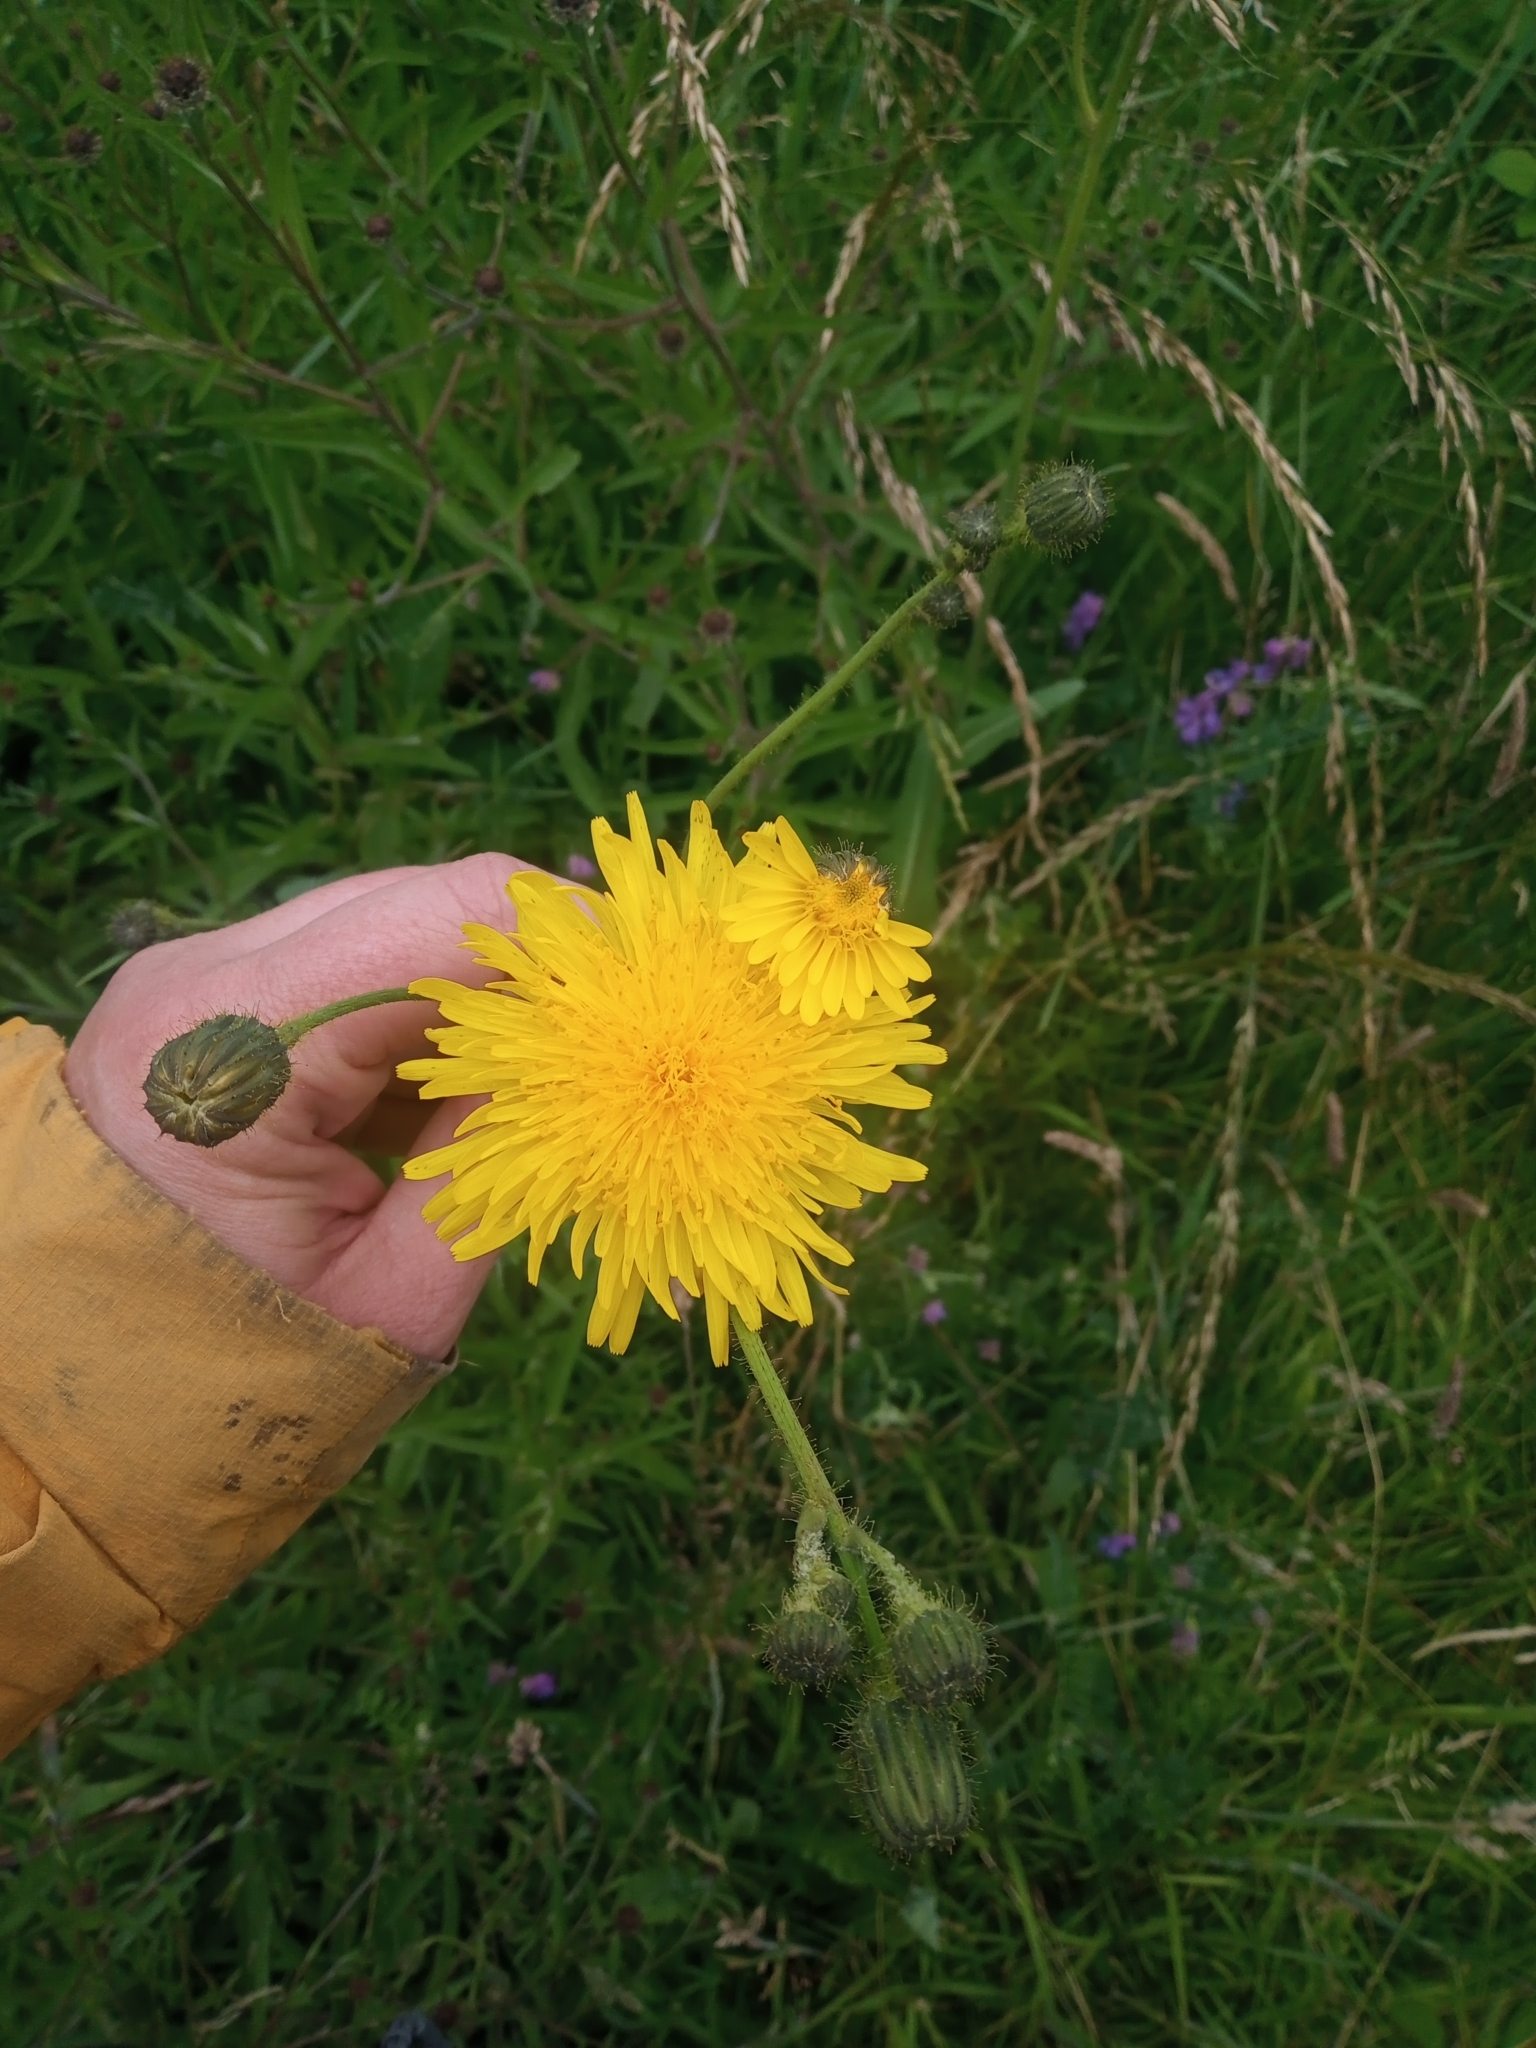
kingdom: Plantae
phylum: Tracheophyta
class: Magnoliopsida
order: Asterales
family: Asteraceae
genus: Sonchus
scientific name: Sonchus arvensis
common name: Perennial sow-thistle
